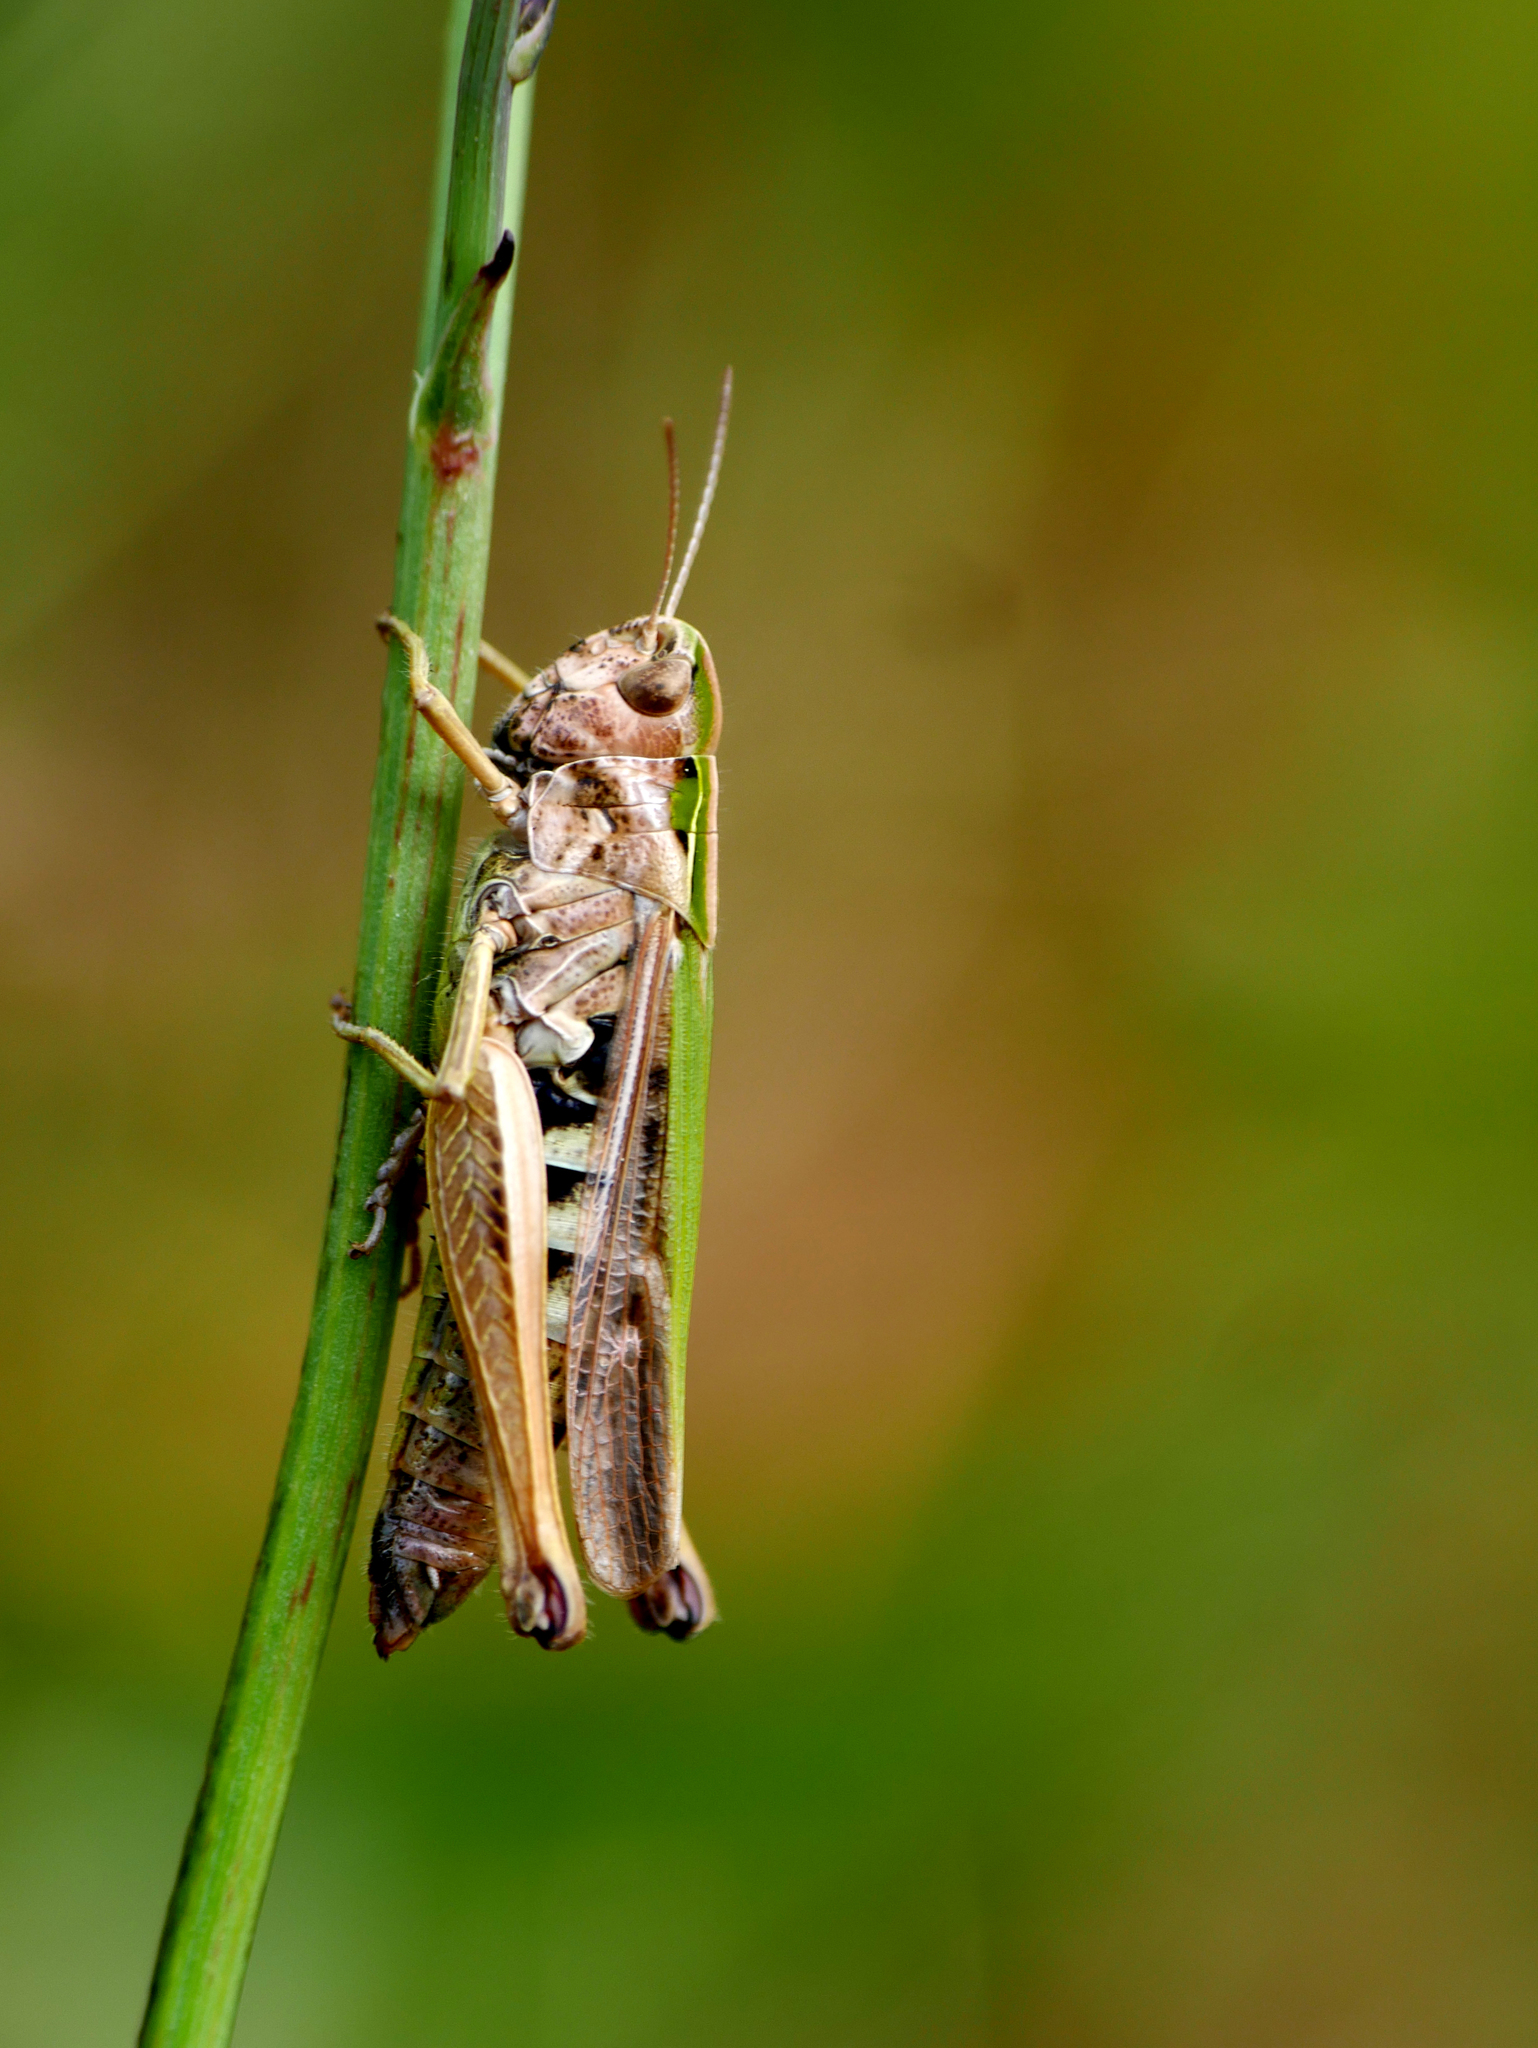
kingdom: Animalia
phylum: Arthropoda
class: Insecta
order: Orthoptera
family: Acrididae
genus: Omocestus
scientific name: Omocestus viridulus
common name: Common green grasshopper
